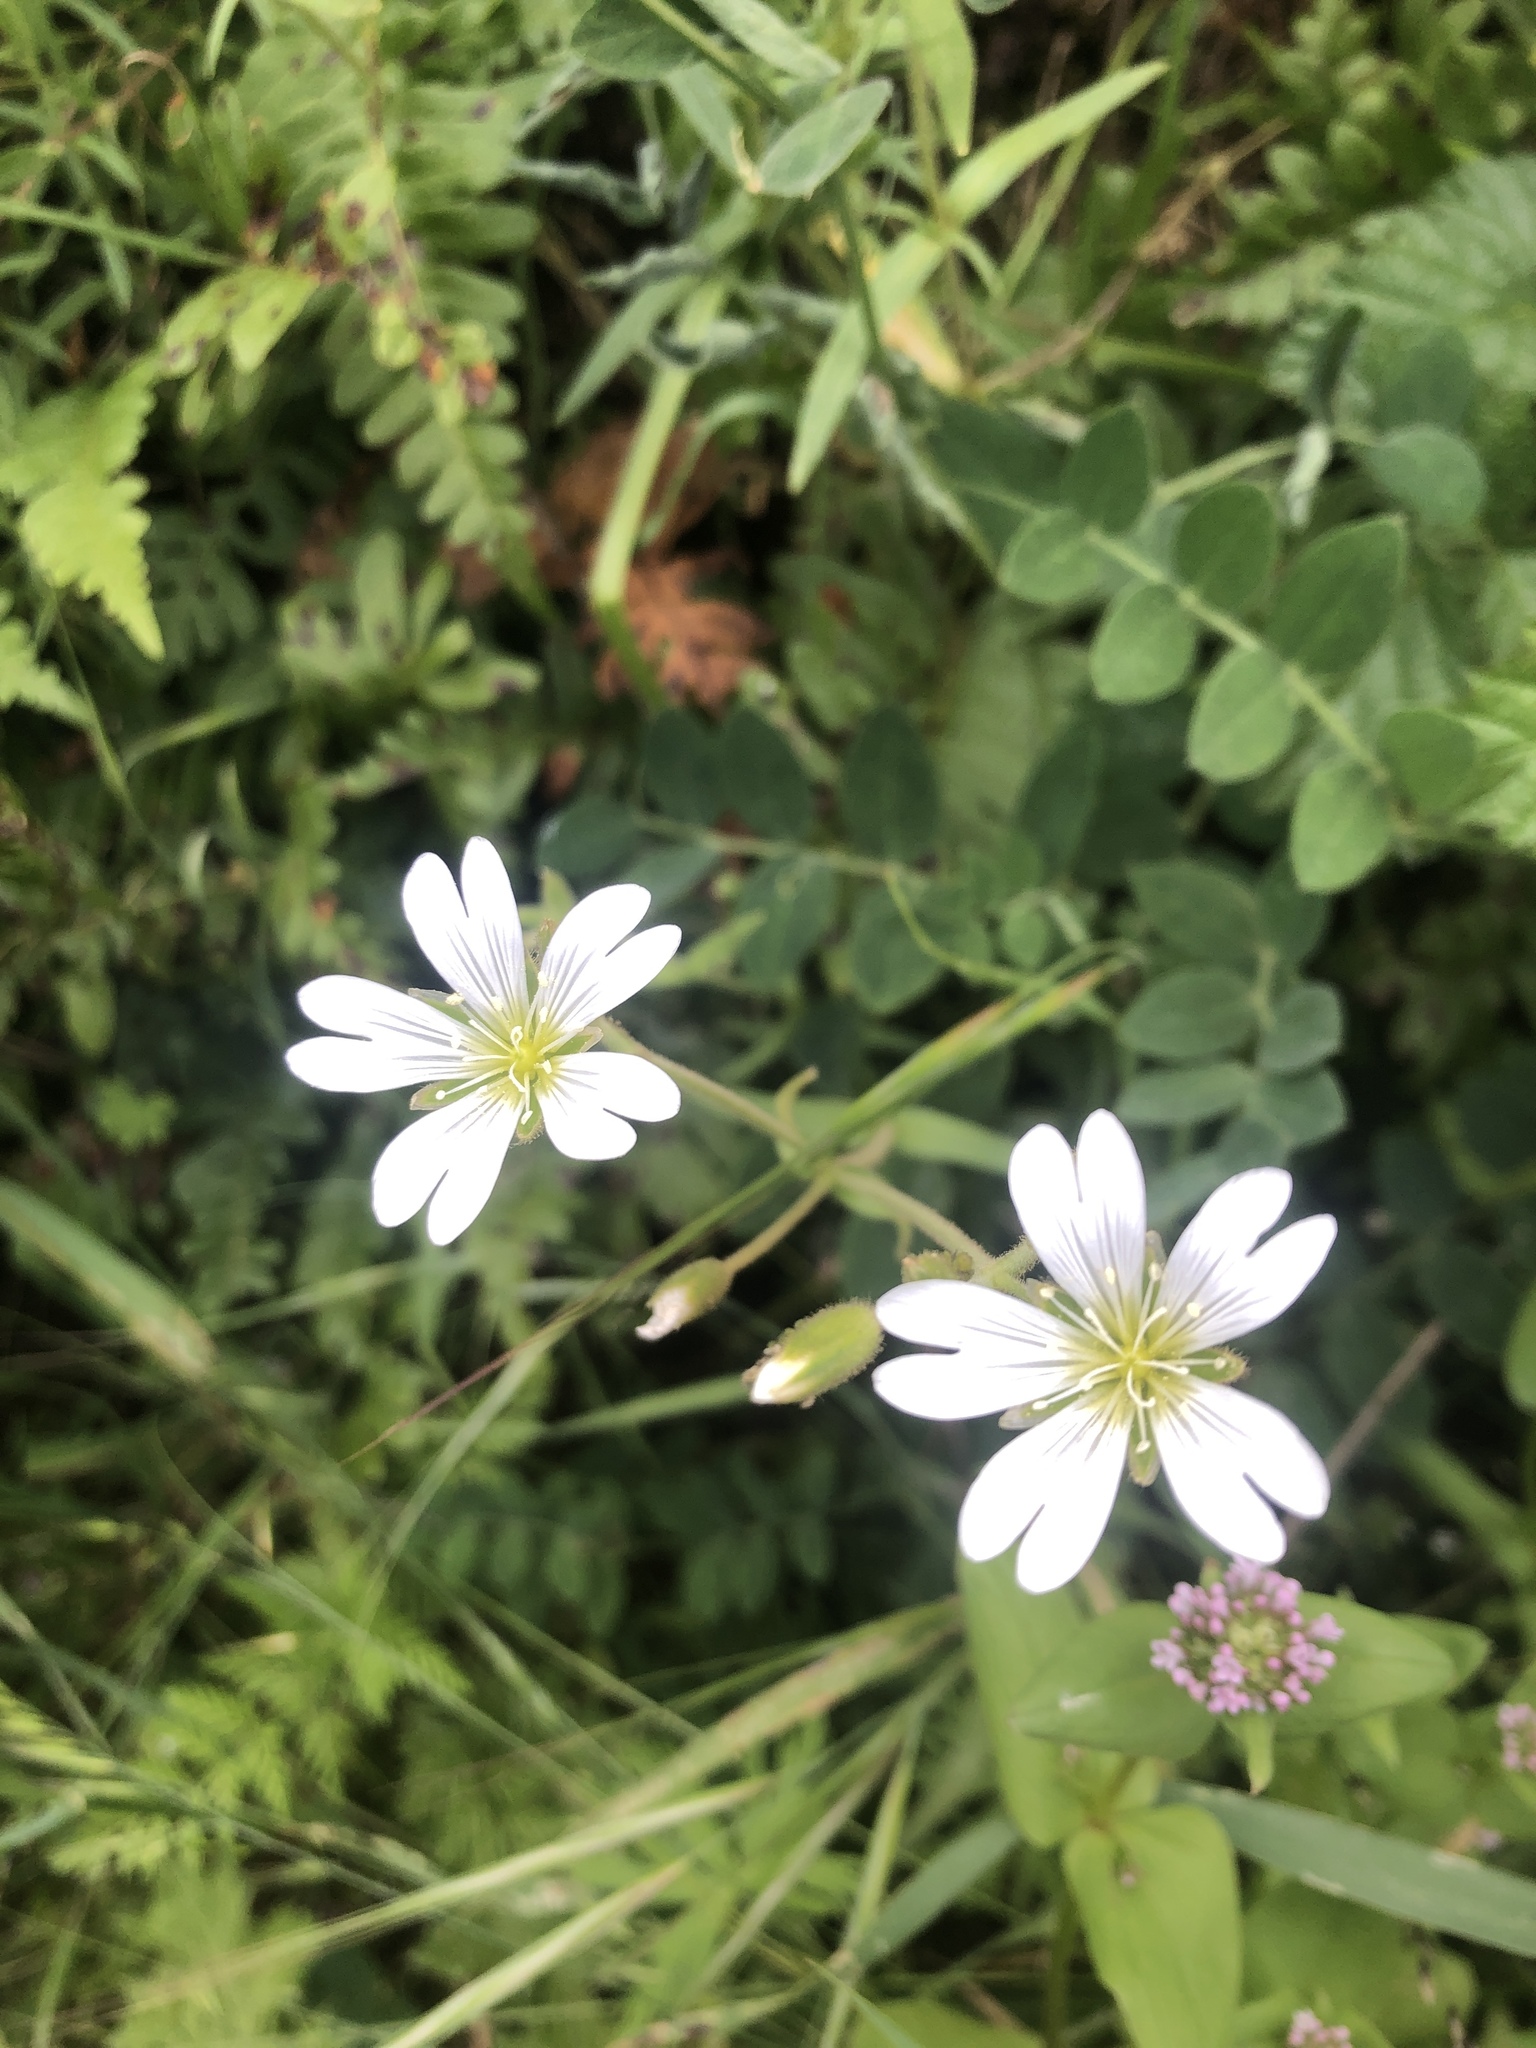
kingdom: Plantae
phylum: Tracheophyta
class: Magnoliopsida
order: Caryophyllales
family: Caryophyllaceae
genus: Cerastium
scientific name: Cerastium arvense
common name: Field mouse-ear
